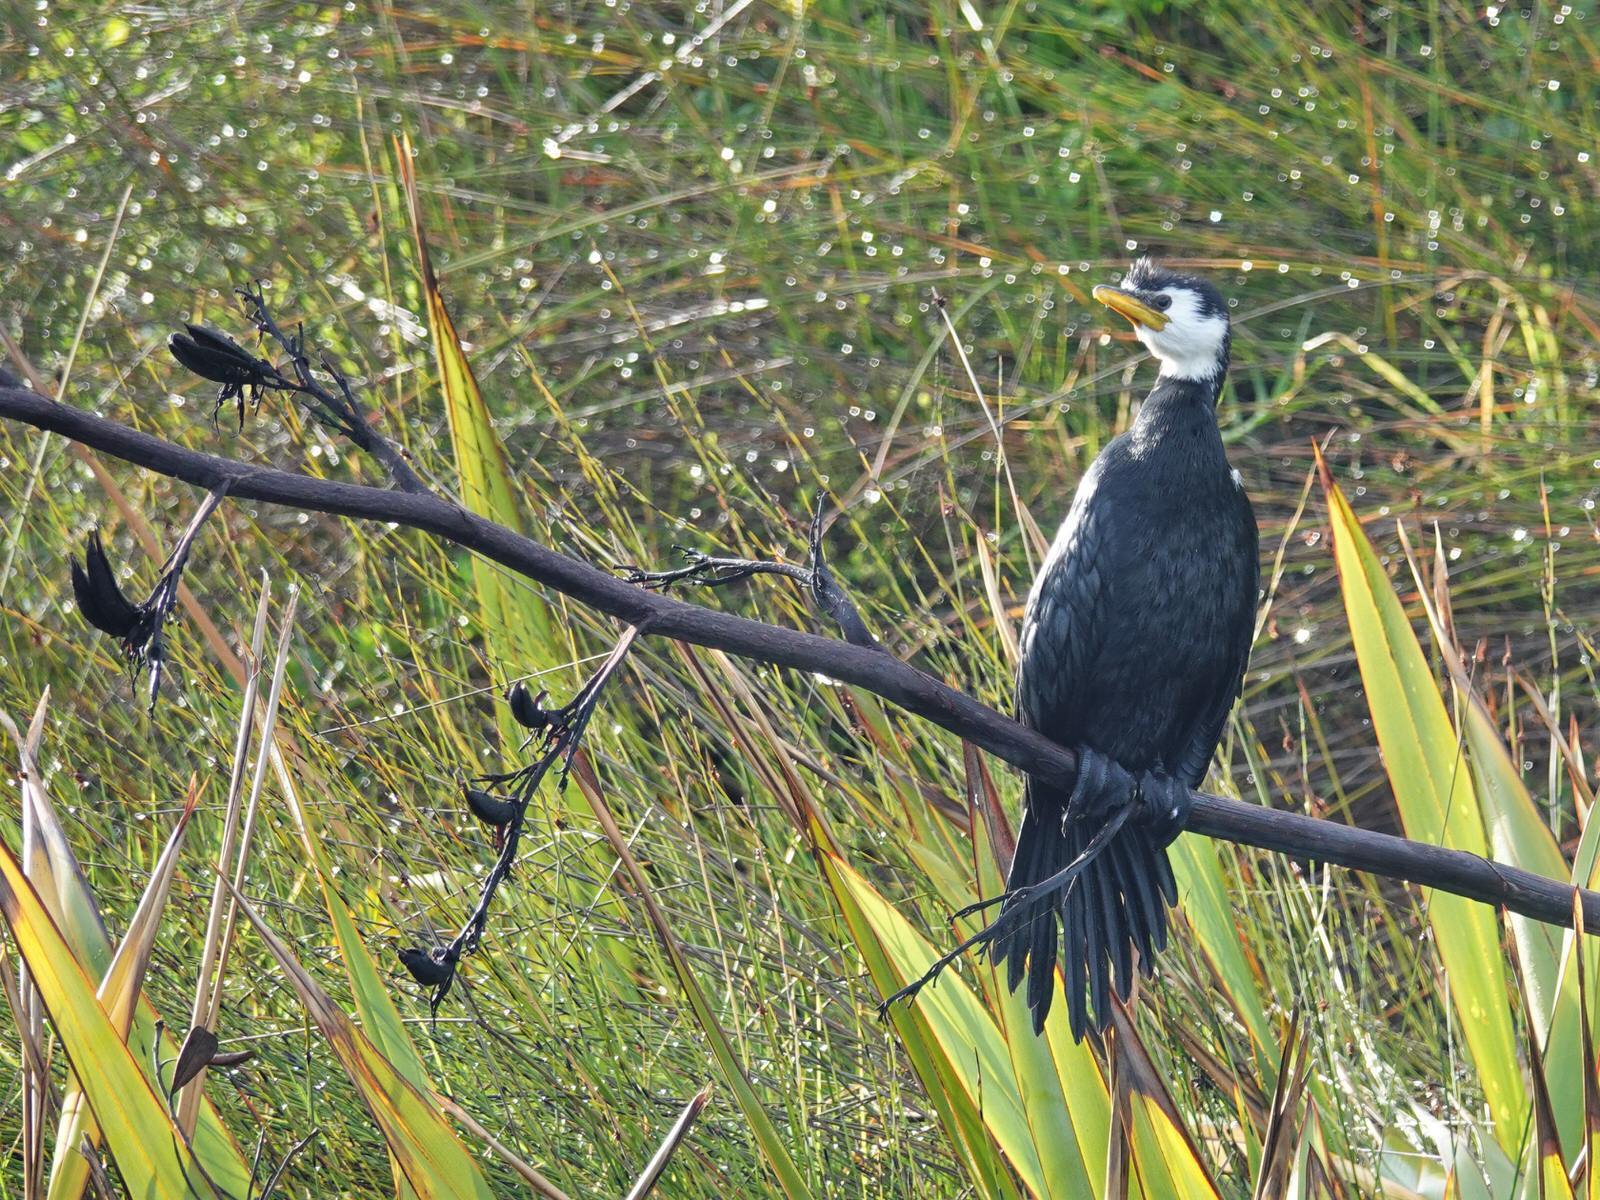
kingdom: Animalia
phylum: Chordata
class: Aves
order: Suliformes
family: Phalacrocoracidae
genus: Microcarbo
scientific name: Microcarbo melanoleucos
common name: Little pied cormorant
